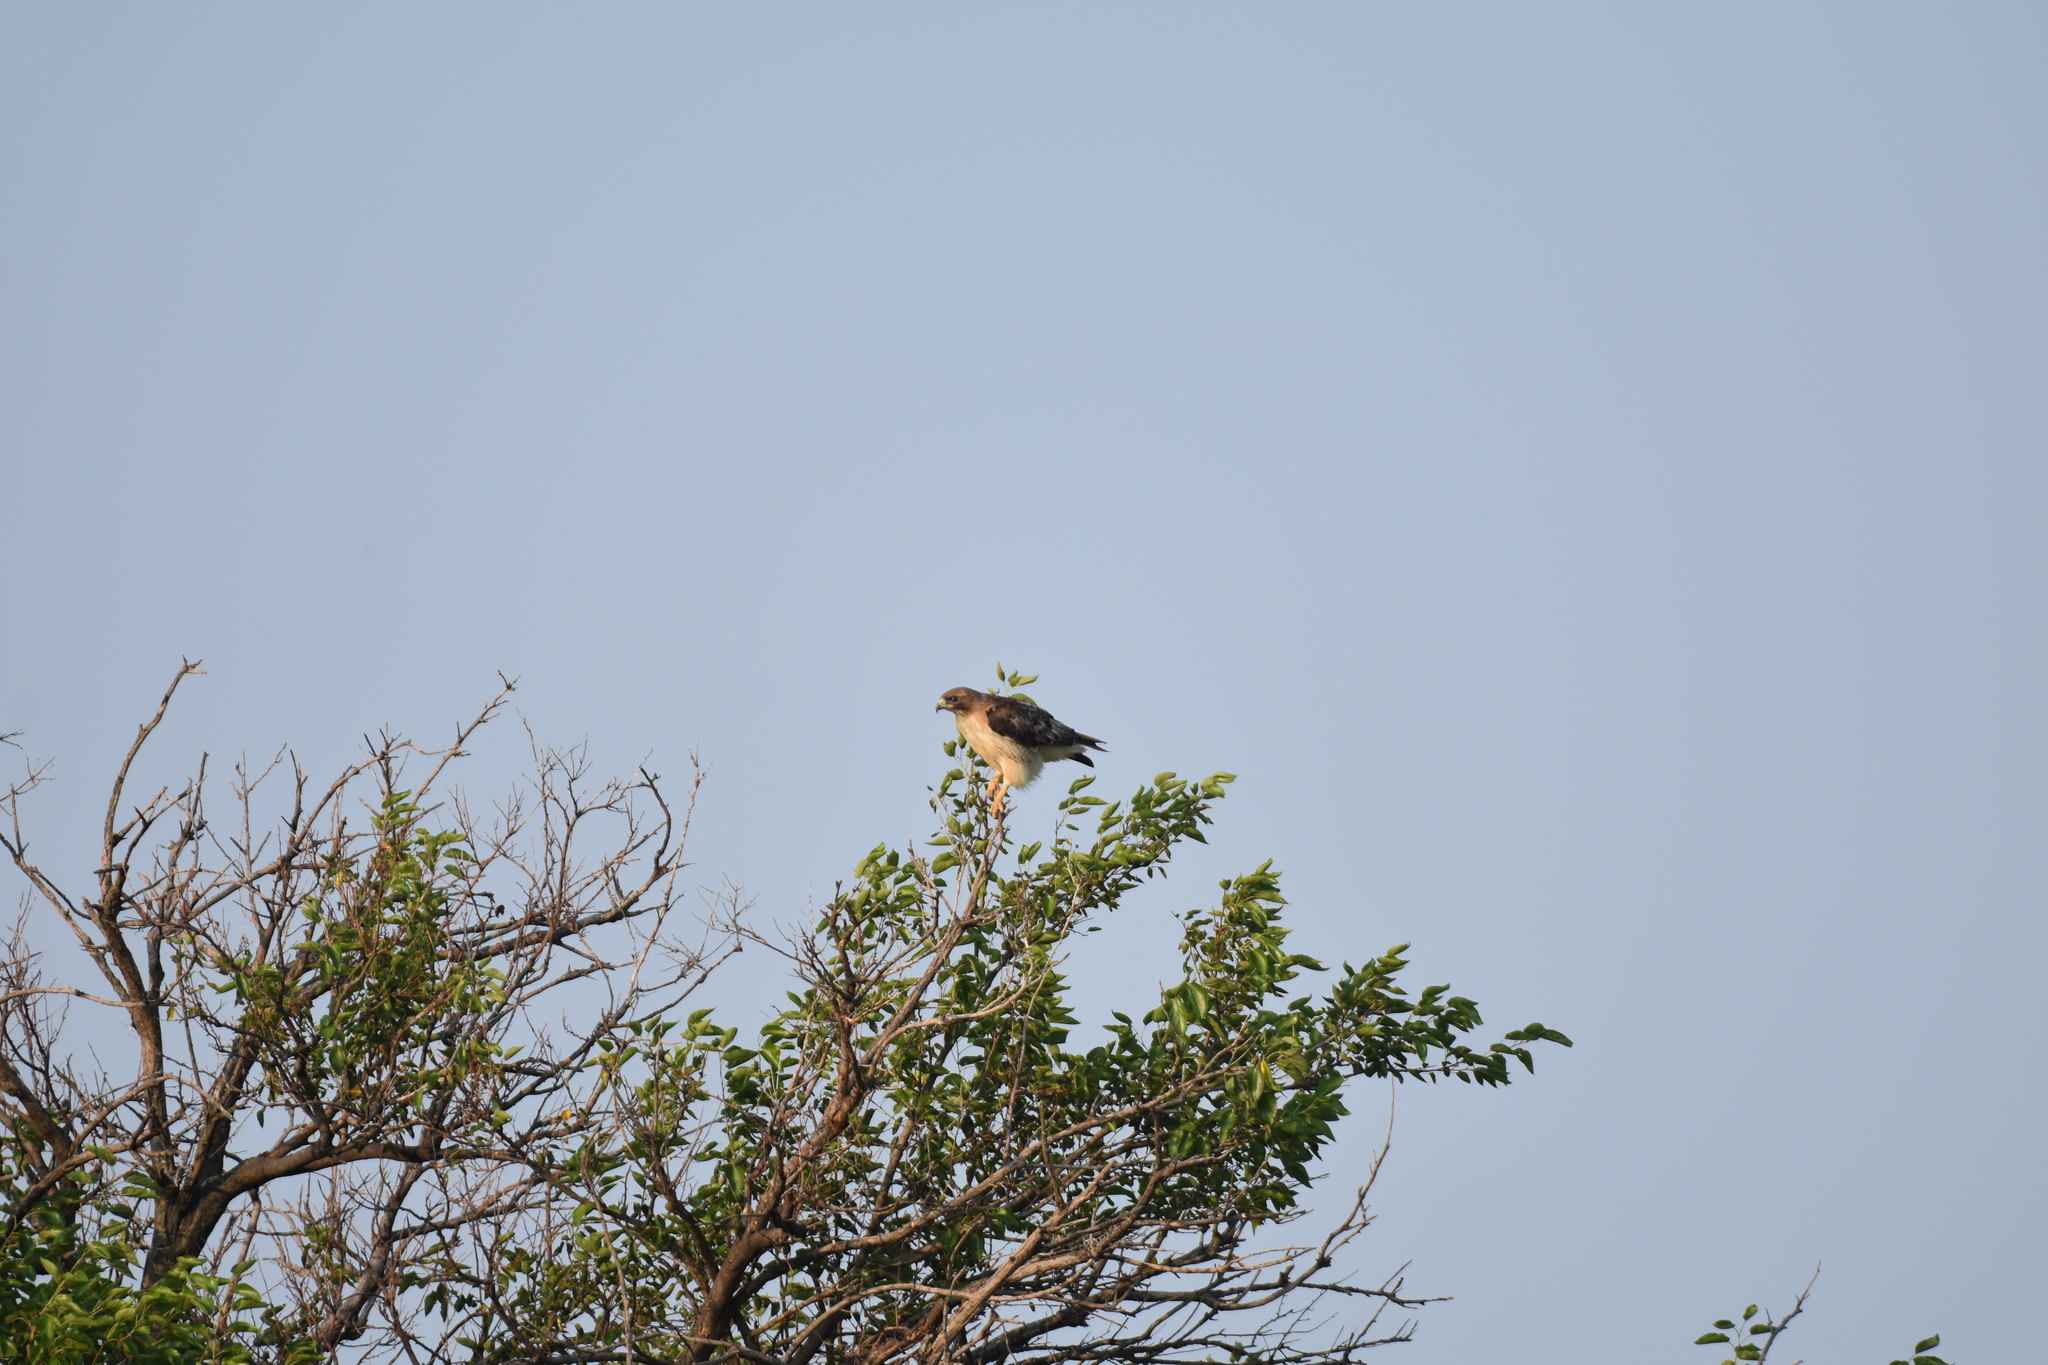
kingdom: Animalia
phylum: Chordata
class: Aves
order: Accipitriformes
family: Accipitridae
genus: Buteo
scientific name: Buteo jamaicensis
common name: Red-tailed hawk
